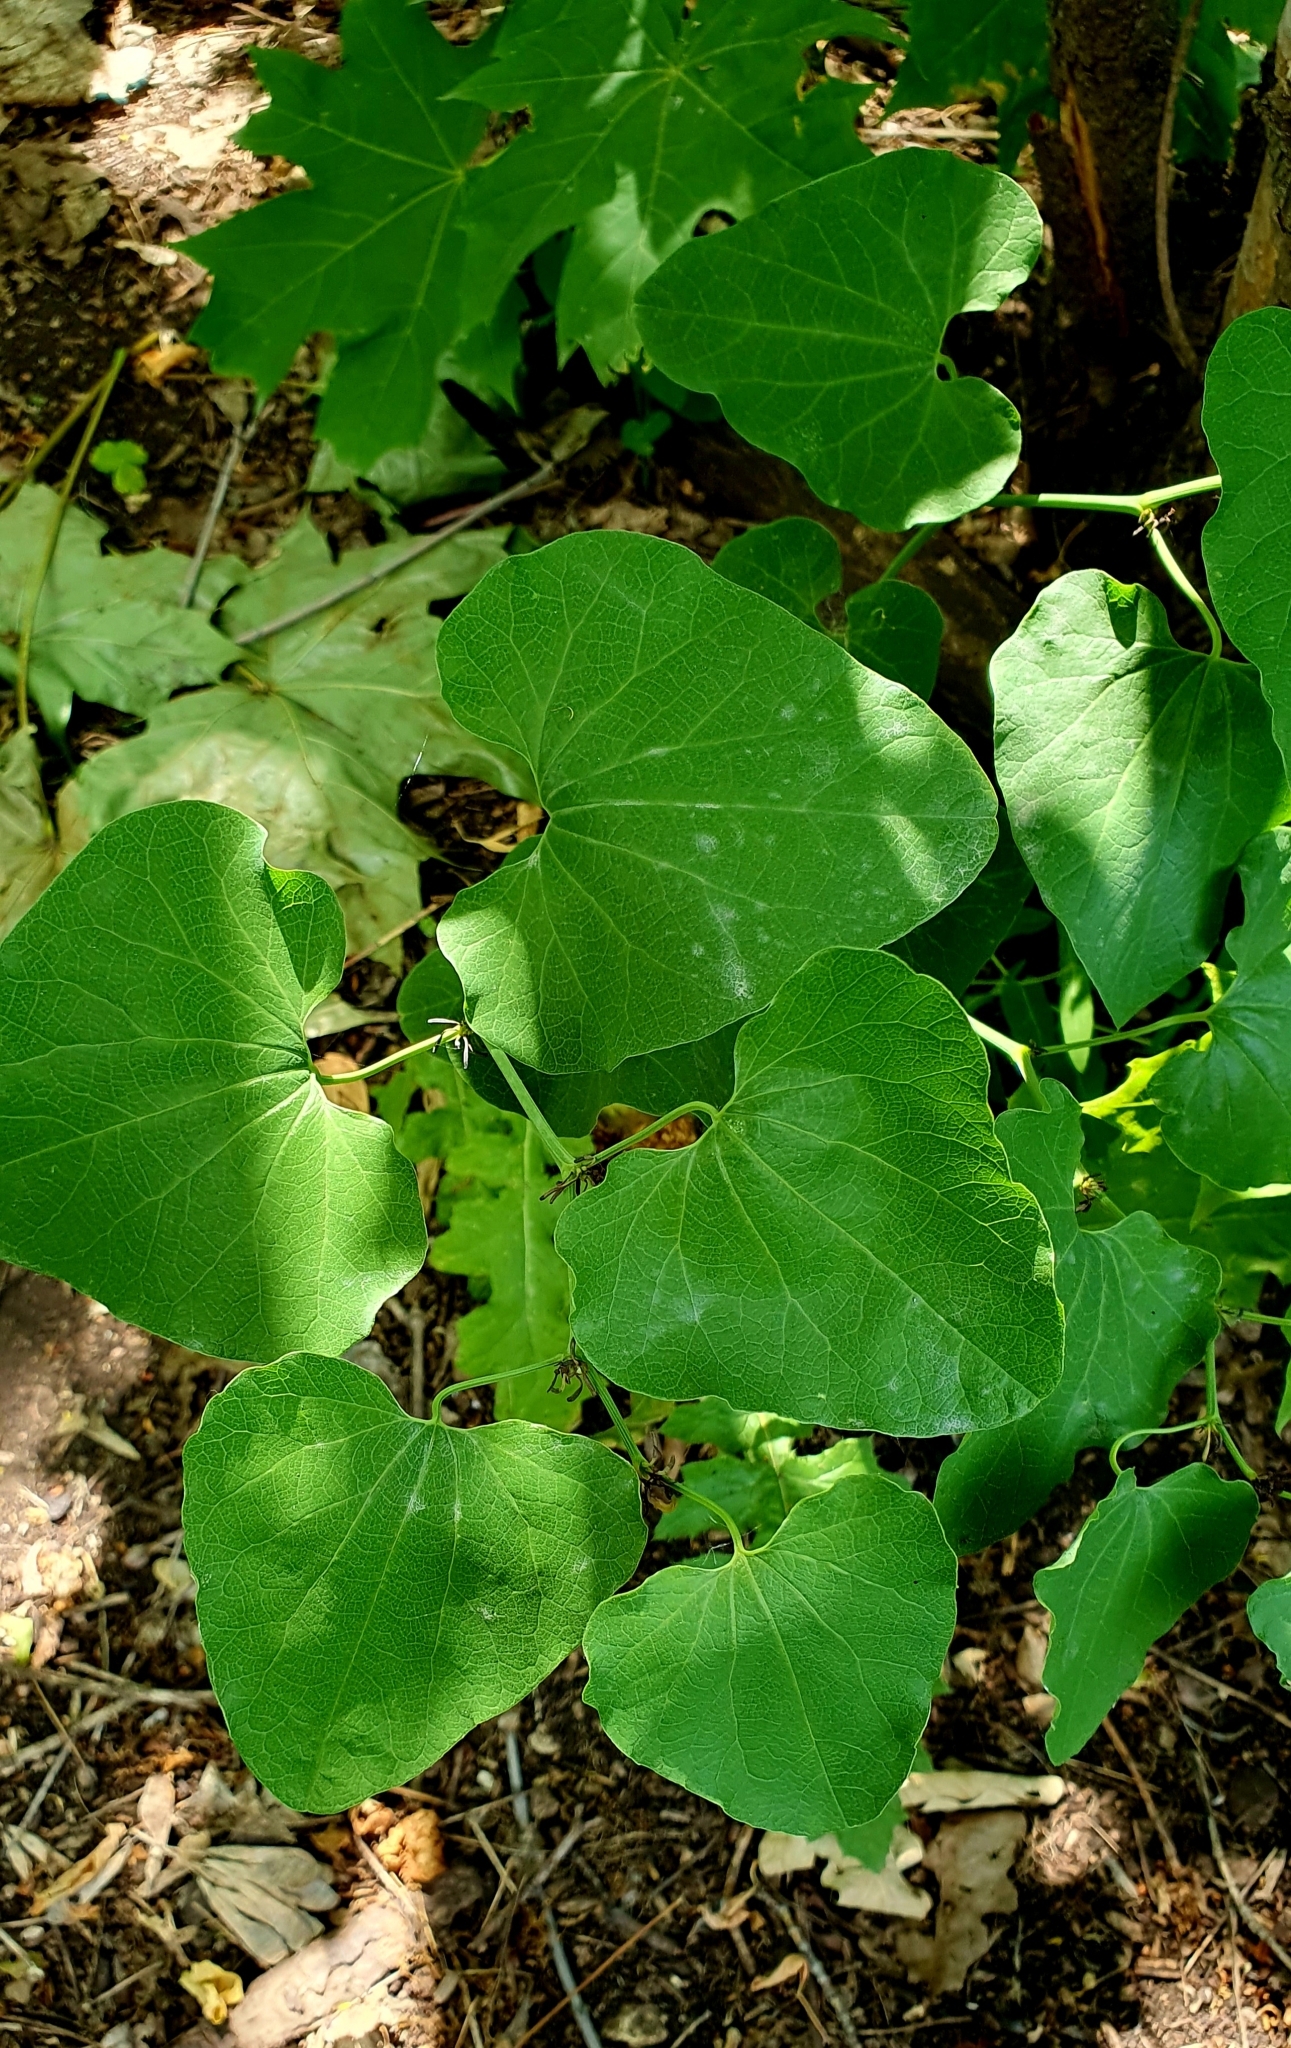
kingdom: Plantae
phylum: Tracheophyta
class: Magnoliopsida
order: Piperales
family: Aristolochiaceae
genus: Aristolochia
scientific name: Aristolochia clematitis
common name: Birthwort
